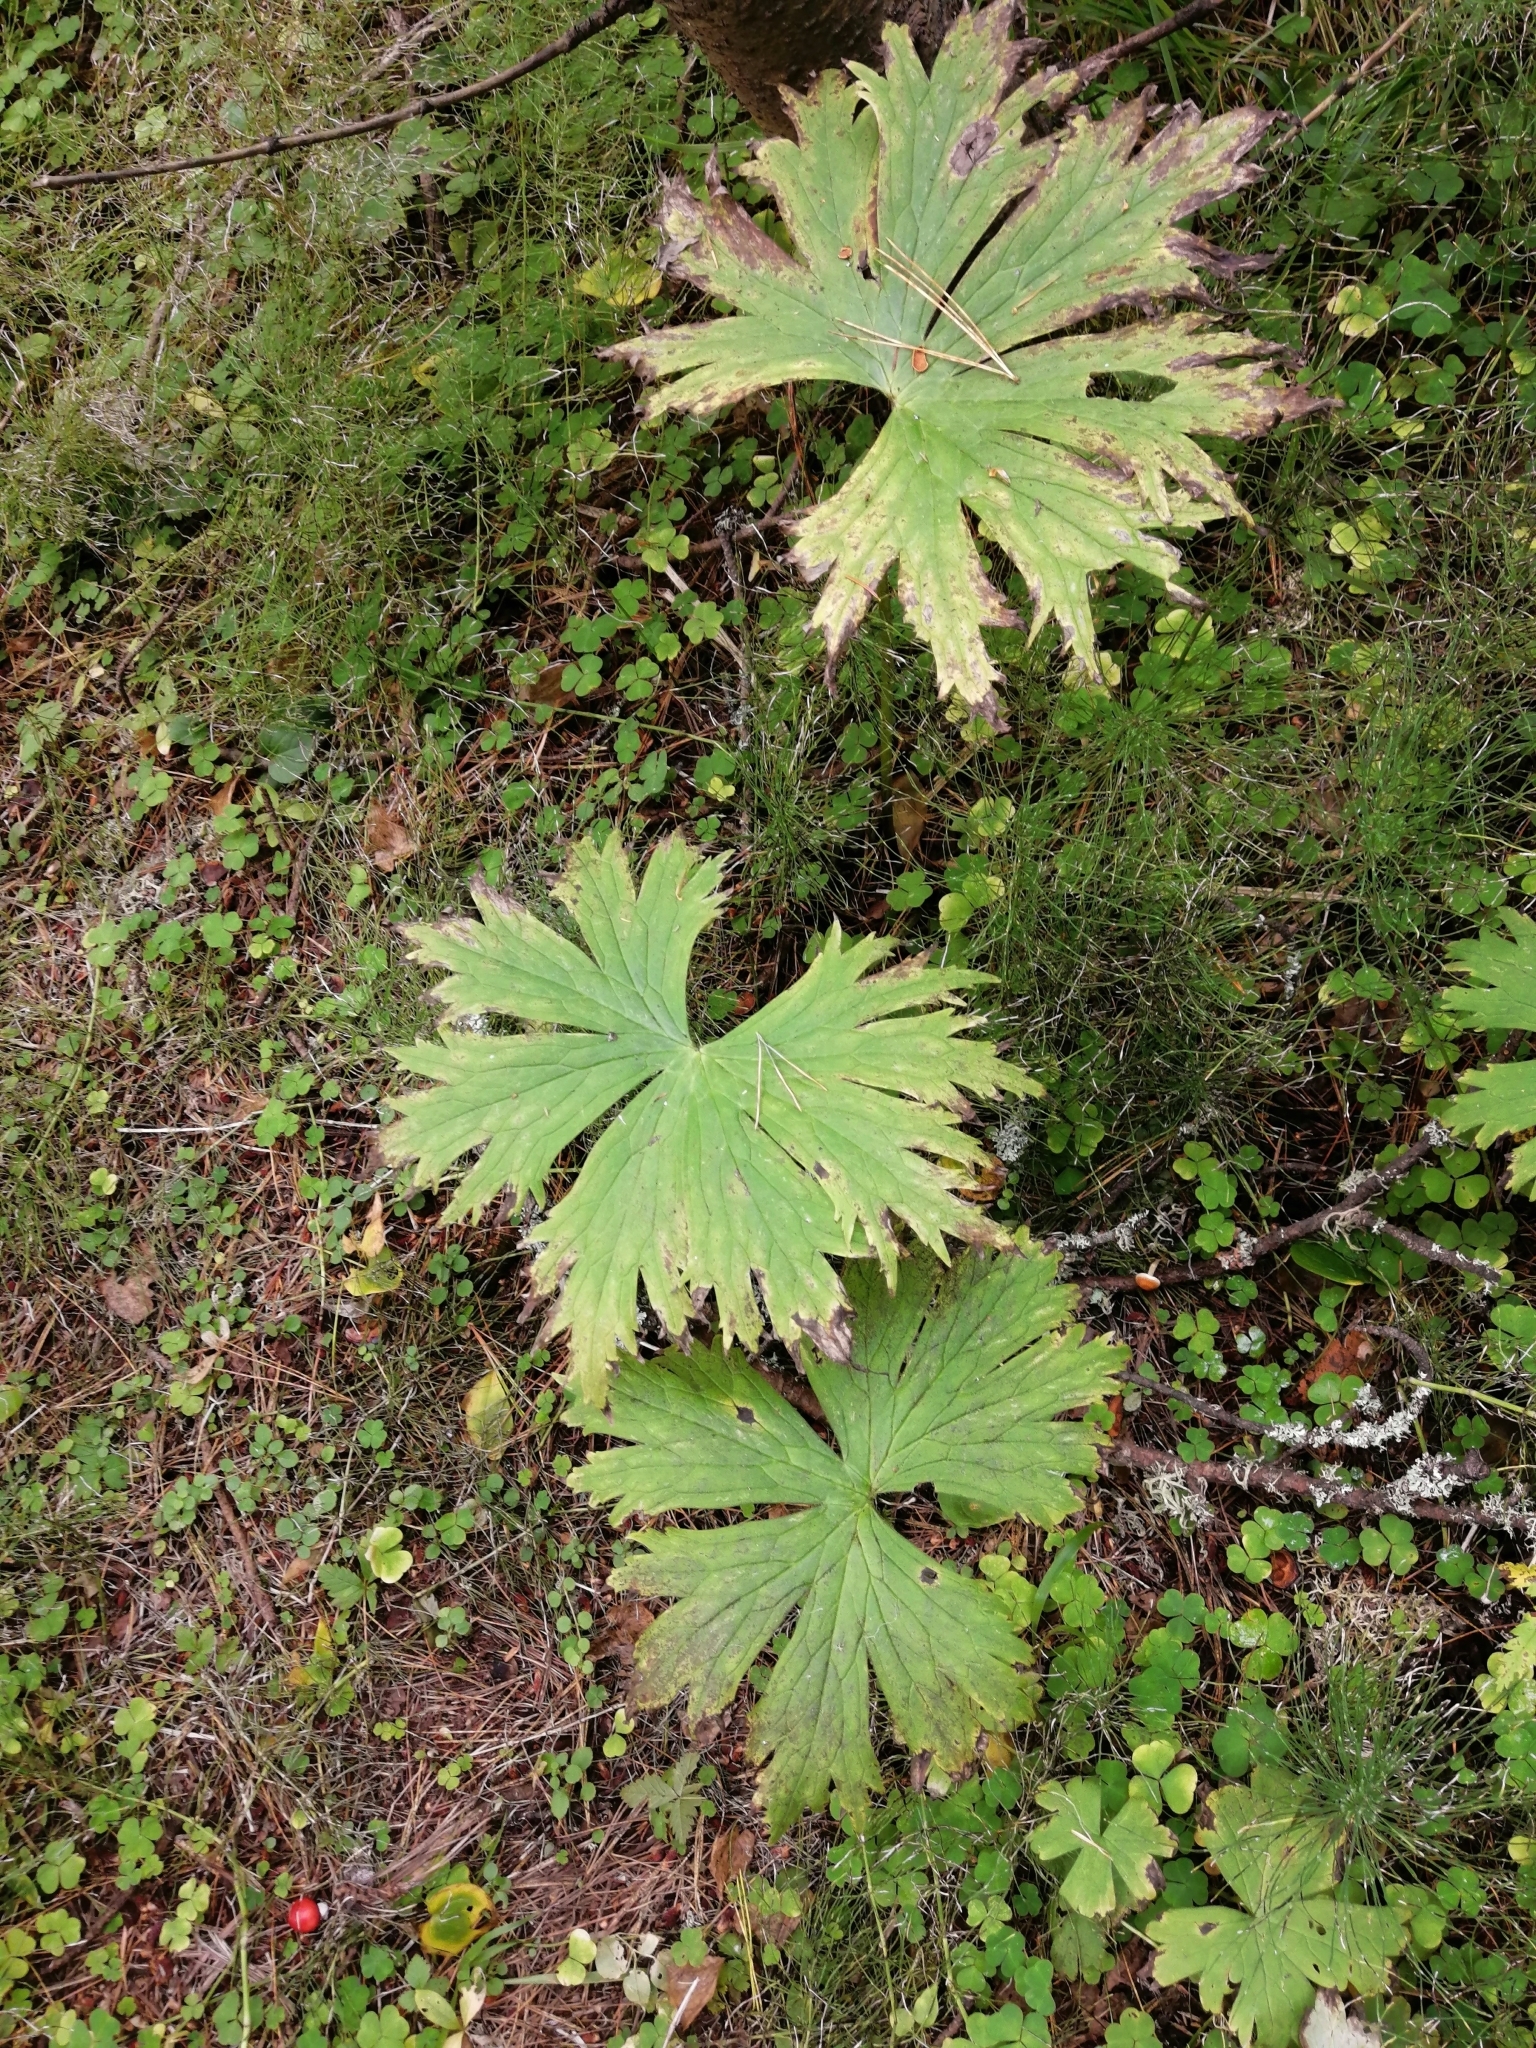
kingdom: Plantae
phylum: Tracheophyta
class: Magnoliopsida
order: Ranunculales
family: Ranunculaceae
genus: Aconitum
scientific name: Aconitum septentrionale
